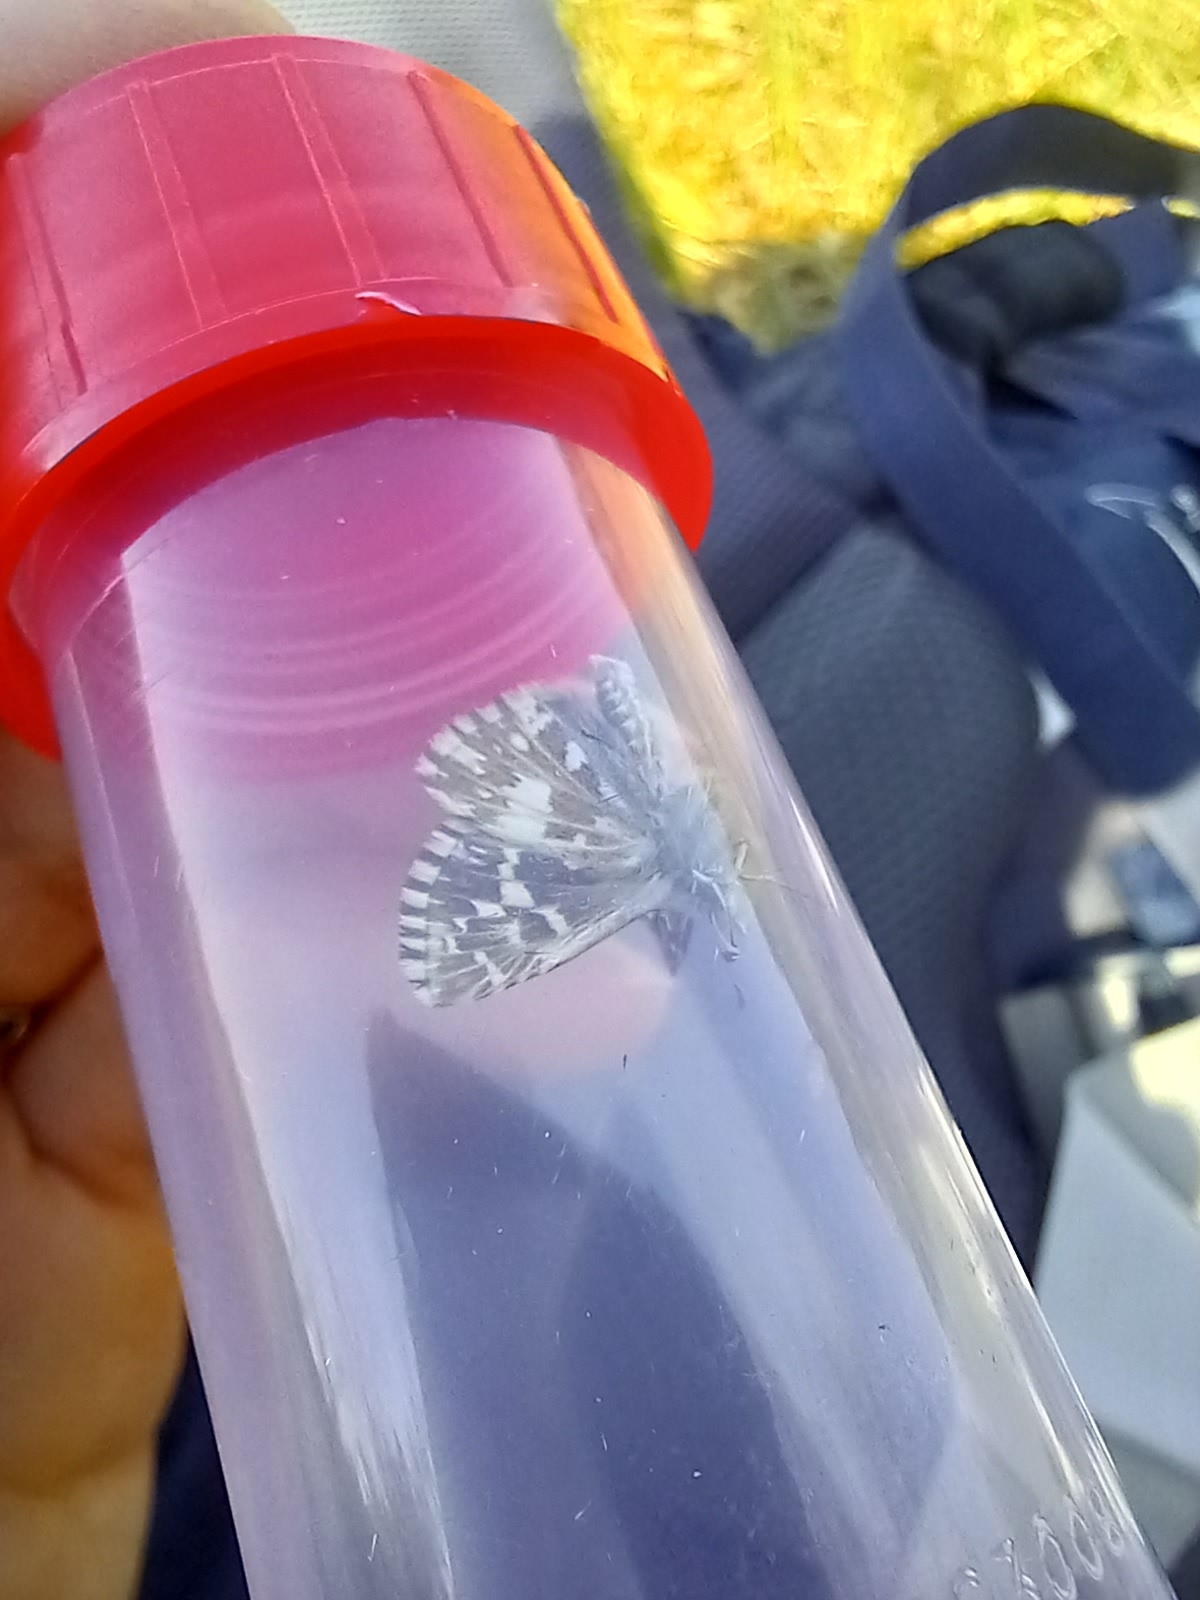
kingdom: Animalia
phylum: Arthropoda
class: Insecta
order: Lepidoptera
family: Hesperiidae
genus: Pyrgus
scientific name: Pyrgus malvae
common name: Grizzled skipper
